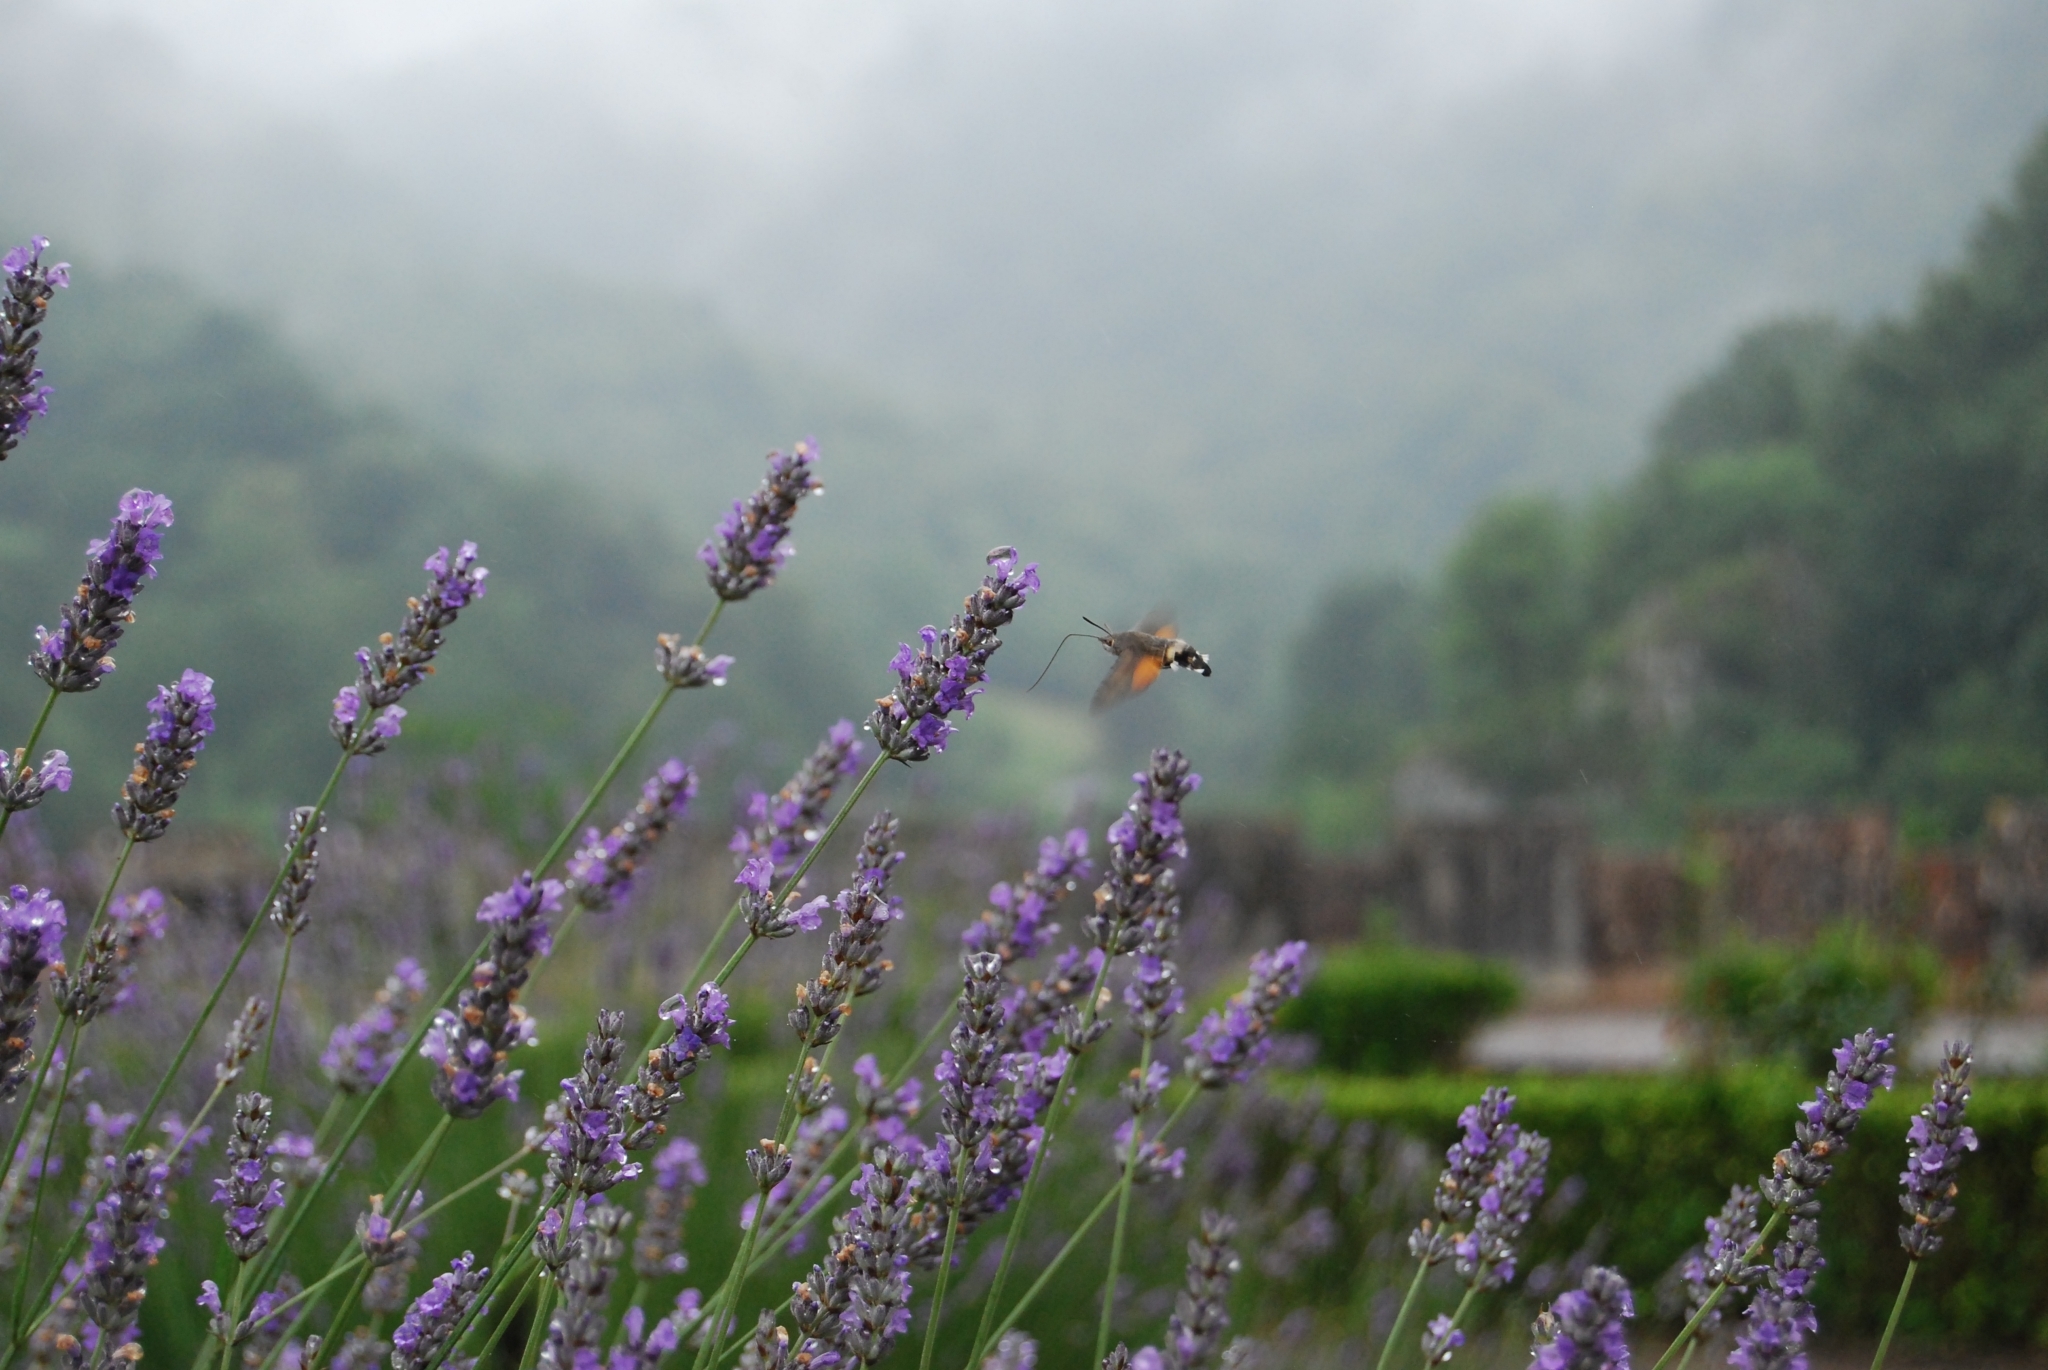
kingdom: Animalia
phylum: Arthropoda
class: Insecta
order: Lepidoptera
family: Sphingidae
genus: Macroglossum
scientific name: Macroglossum stellatarum
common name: Humming-bird hawk-moth
